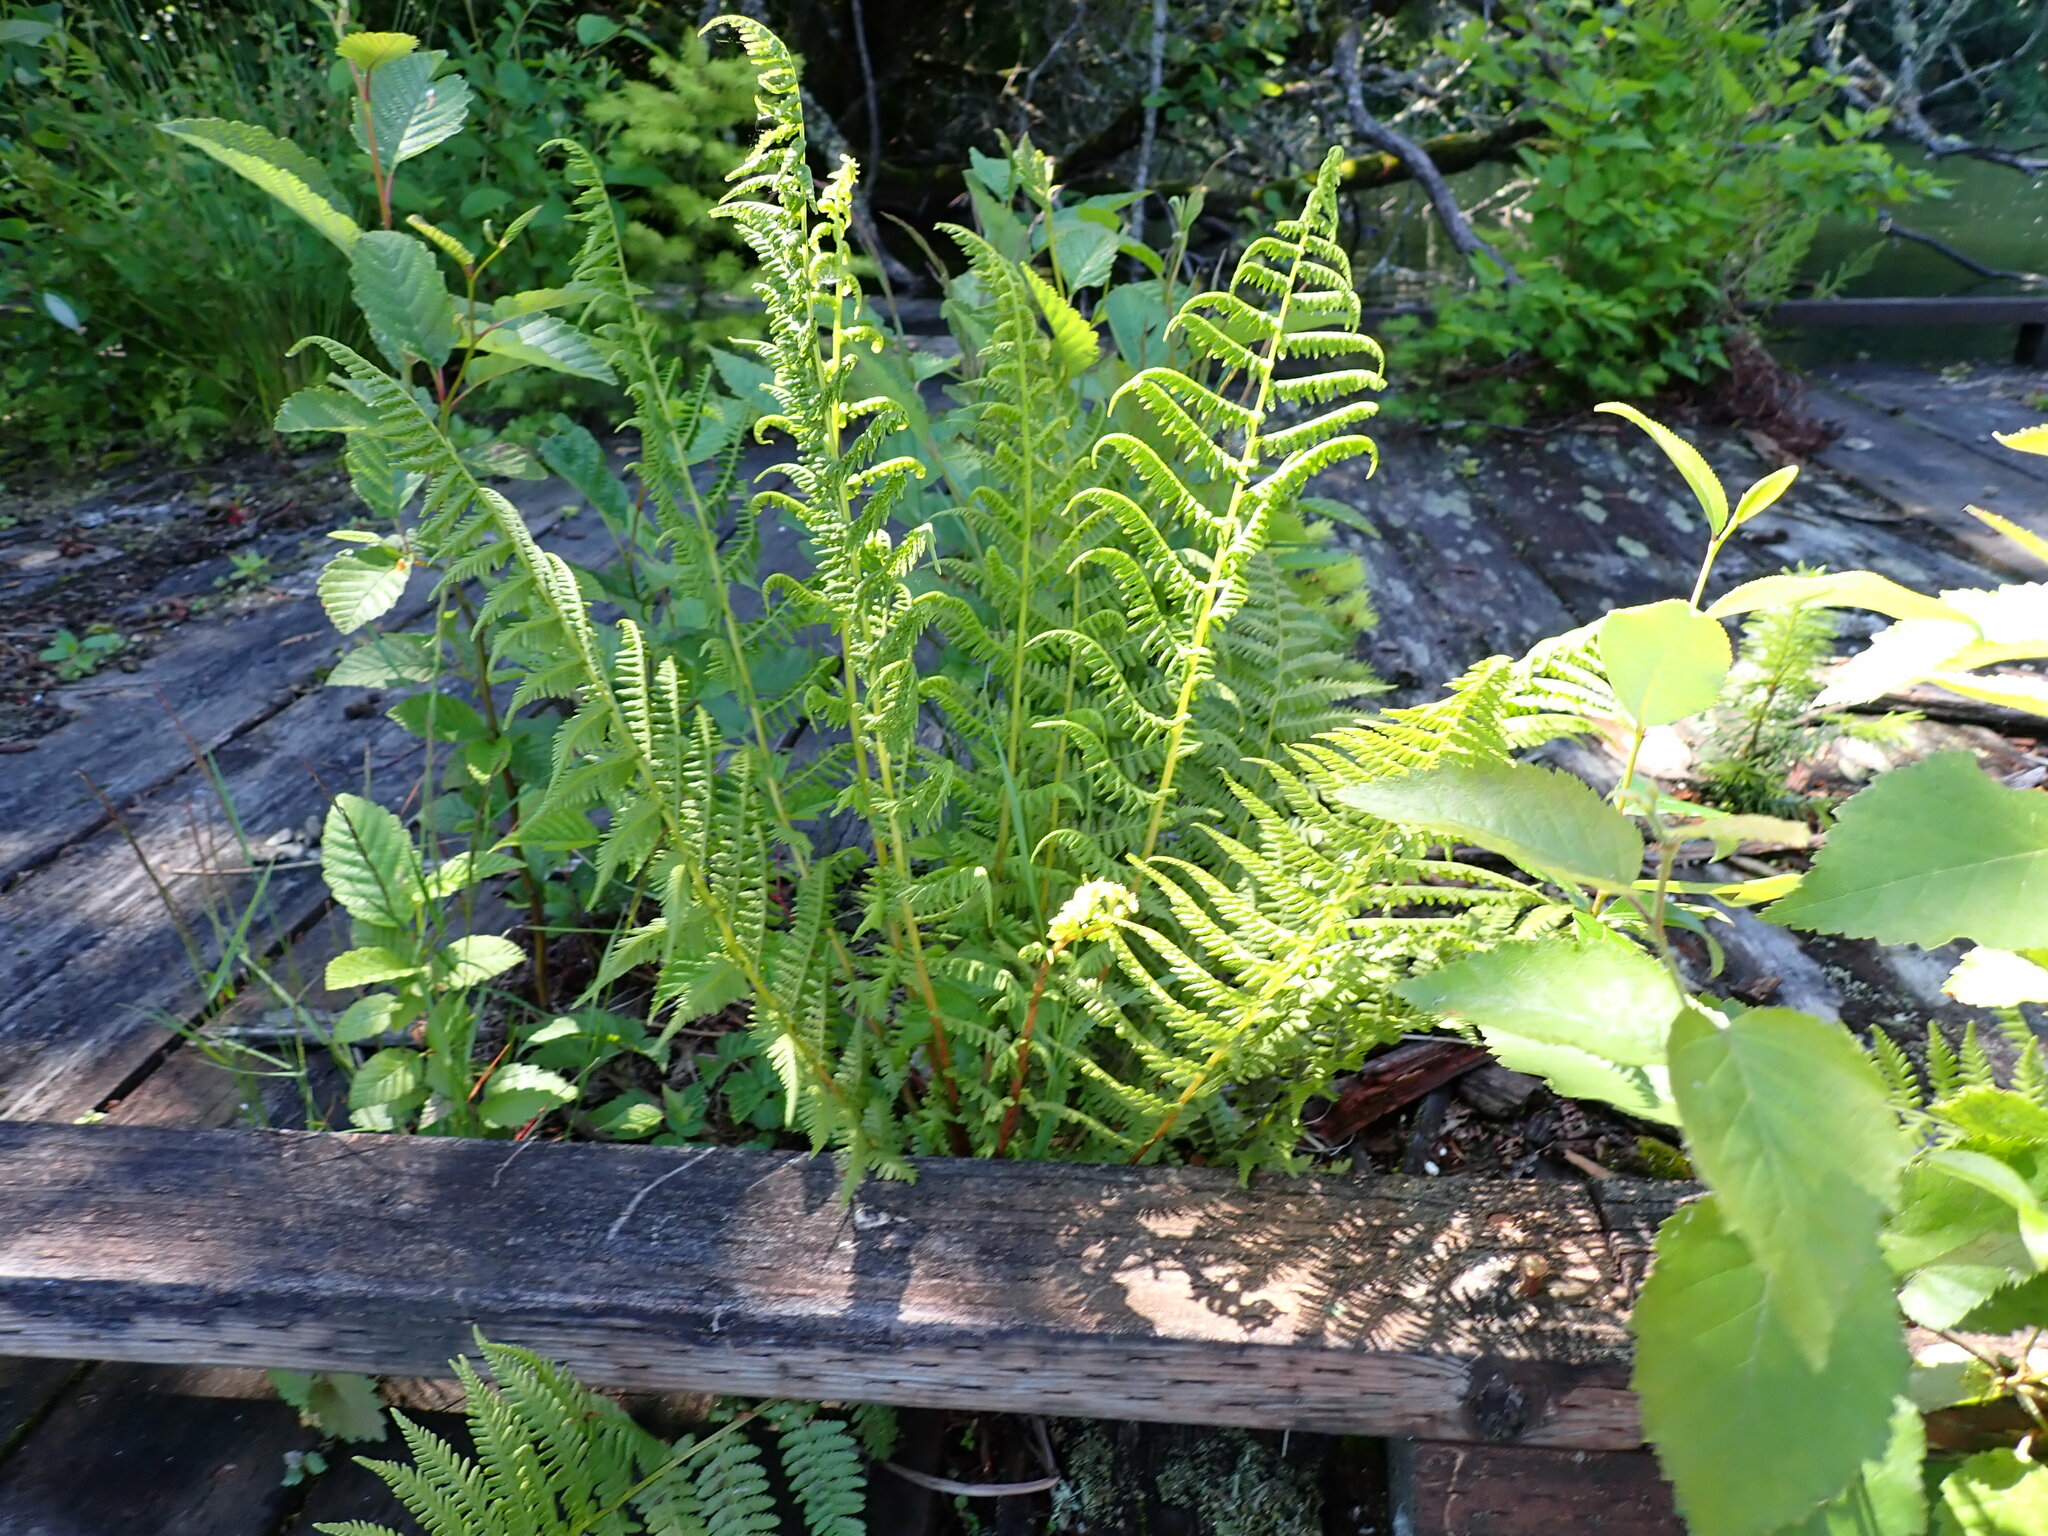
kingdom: Plantae
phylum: Tracheophyta
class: Polypodiopsida
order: Polypodiales
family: Athyriaceae
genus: Athyrium
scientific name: Athyrium cyclosorum
